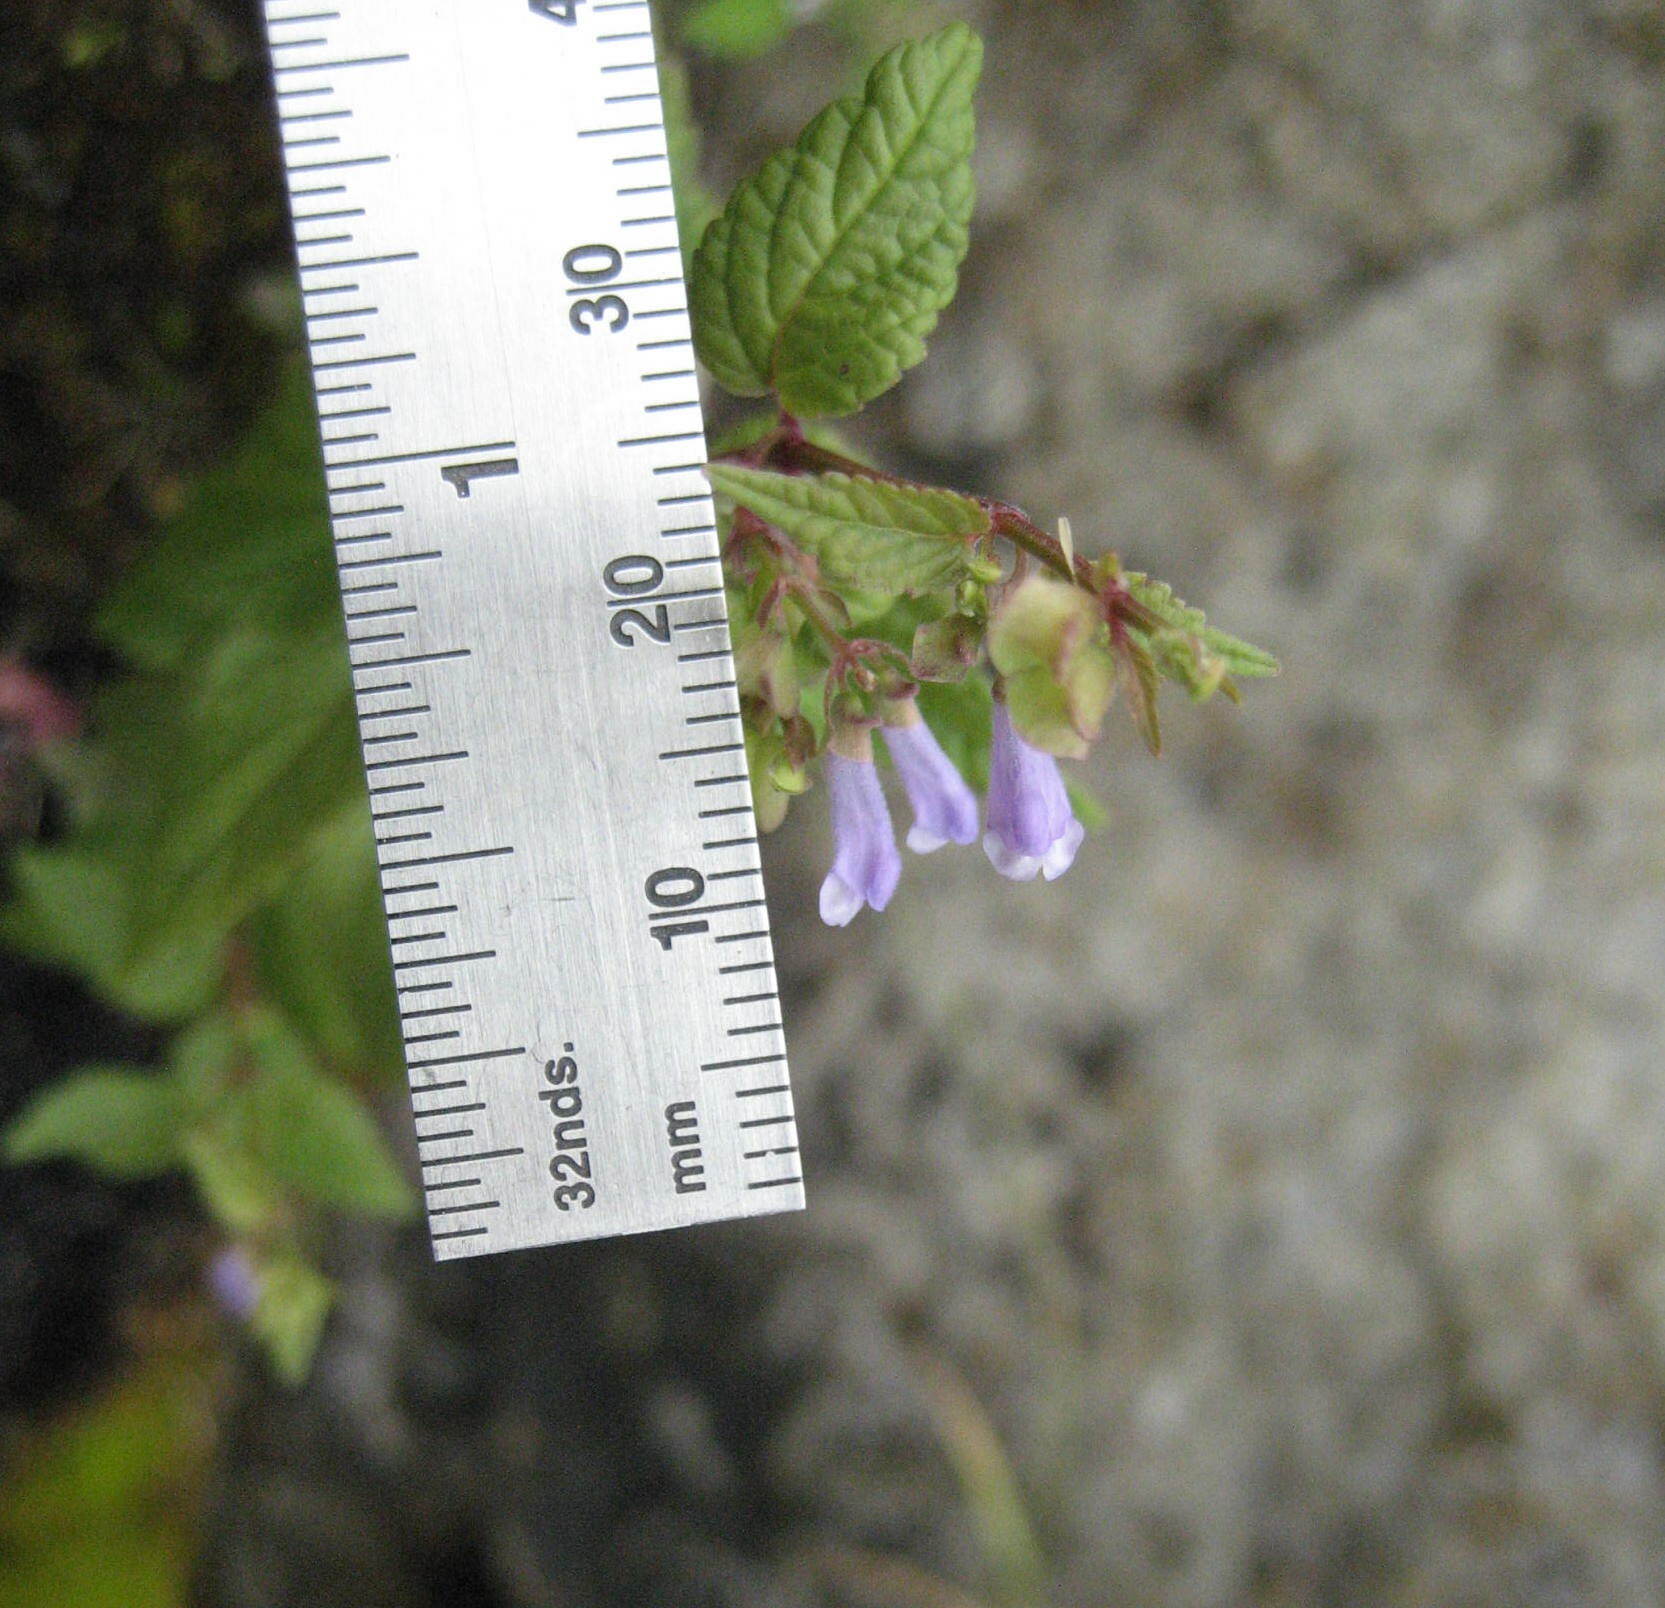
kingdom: Plantae
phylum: Tracheophyta
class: Magnoliopsida
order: Lamiales
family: Lamiaceae
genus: Scutellaria
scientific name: Scutellaria lateriflora
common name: Blue skullcap
